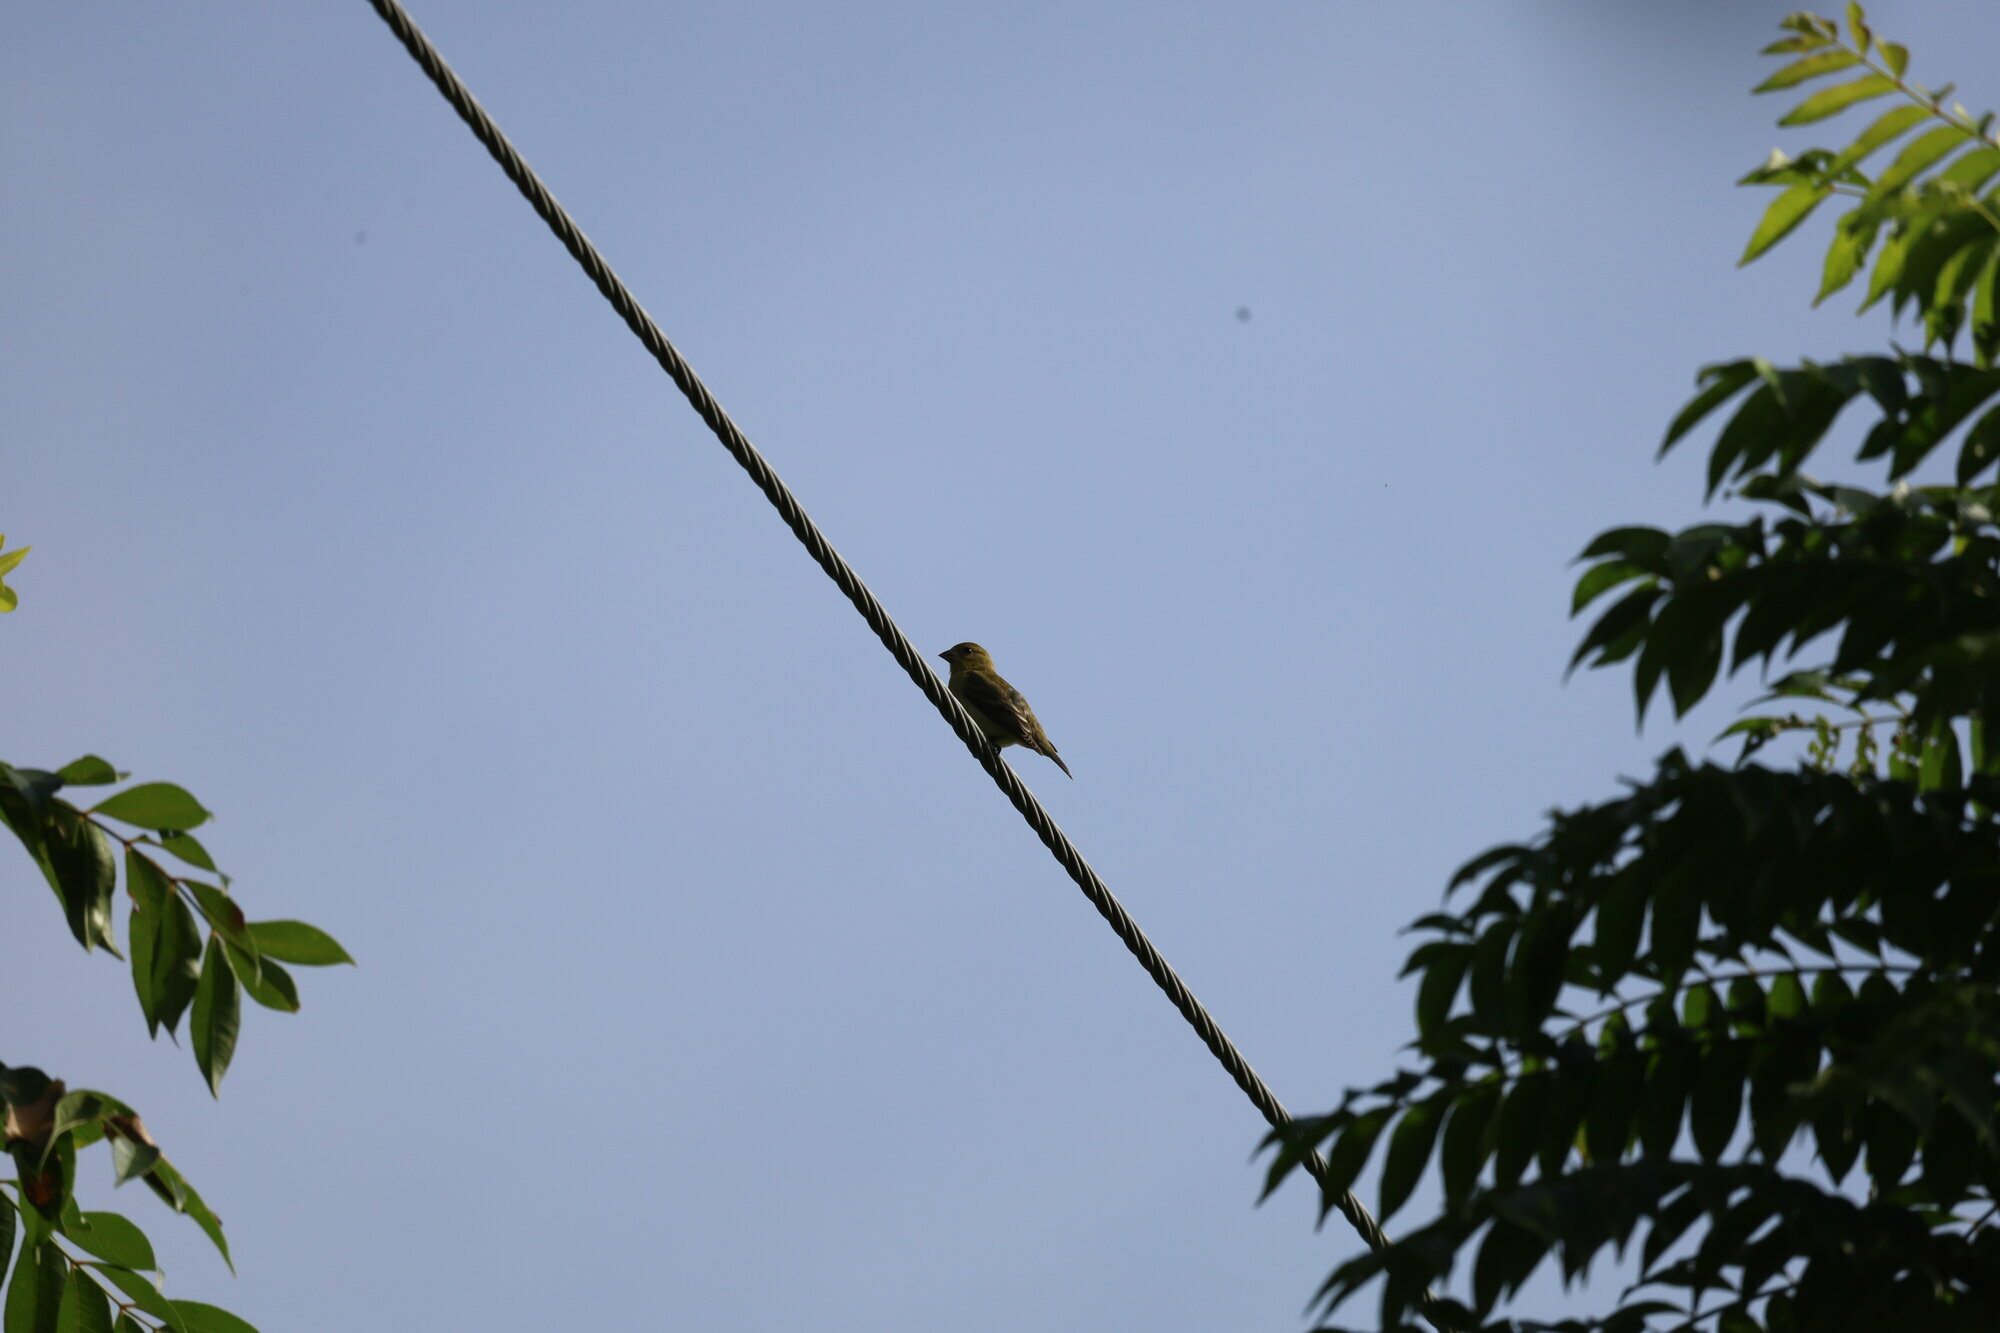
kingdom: Animalia
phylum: Chordata
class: Aves
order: Passeriformes
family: Fringillidae
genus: Spinus
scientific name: Spinus psaltria
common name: Lesser goldfinch
